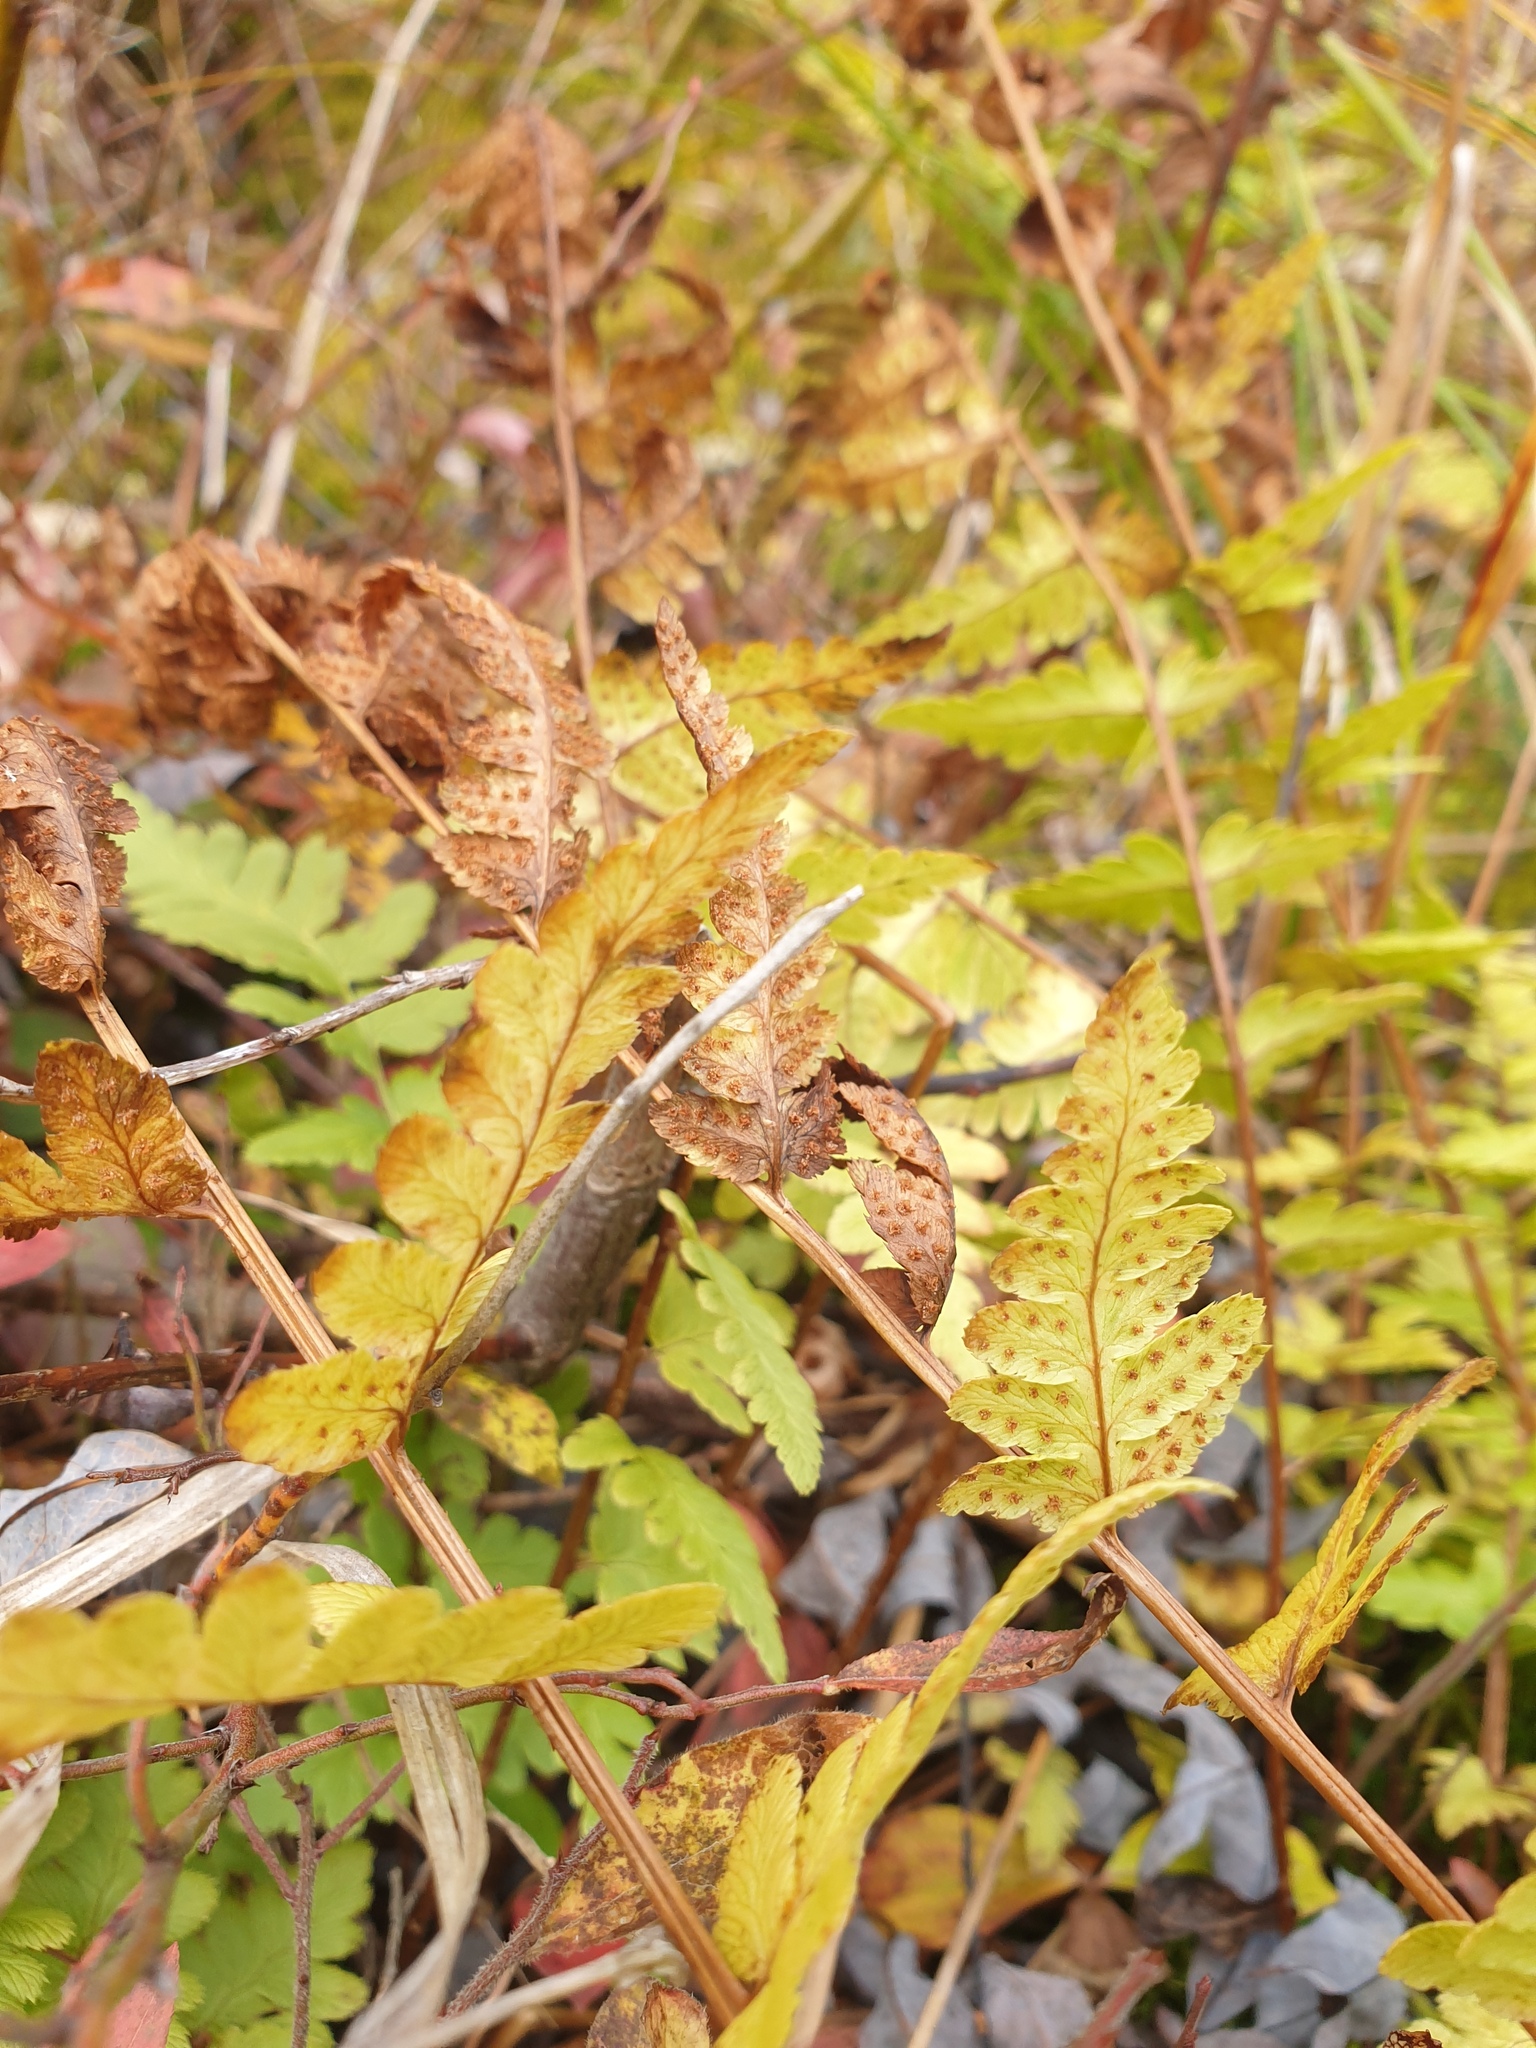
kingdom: Plantae
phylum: Tracheophyta
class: Polypodiopsida
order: Polypodiales
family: Dryopteridaceae
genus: Dryopteris
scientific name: Dryopteris cristata
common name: Crested wood fern
